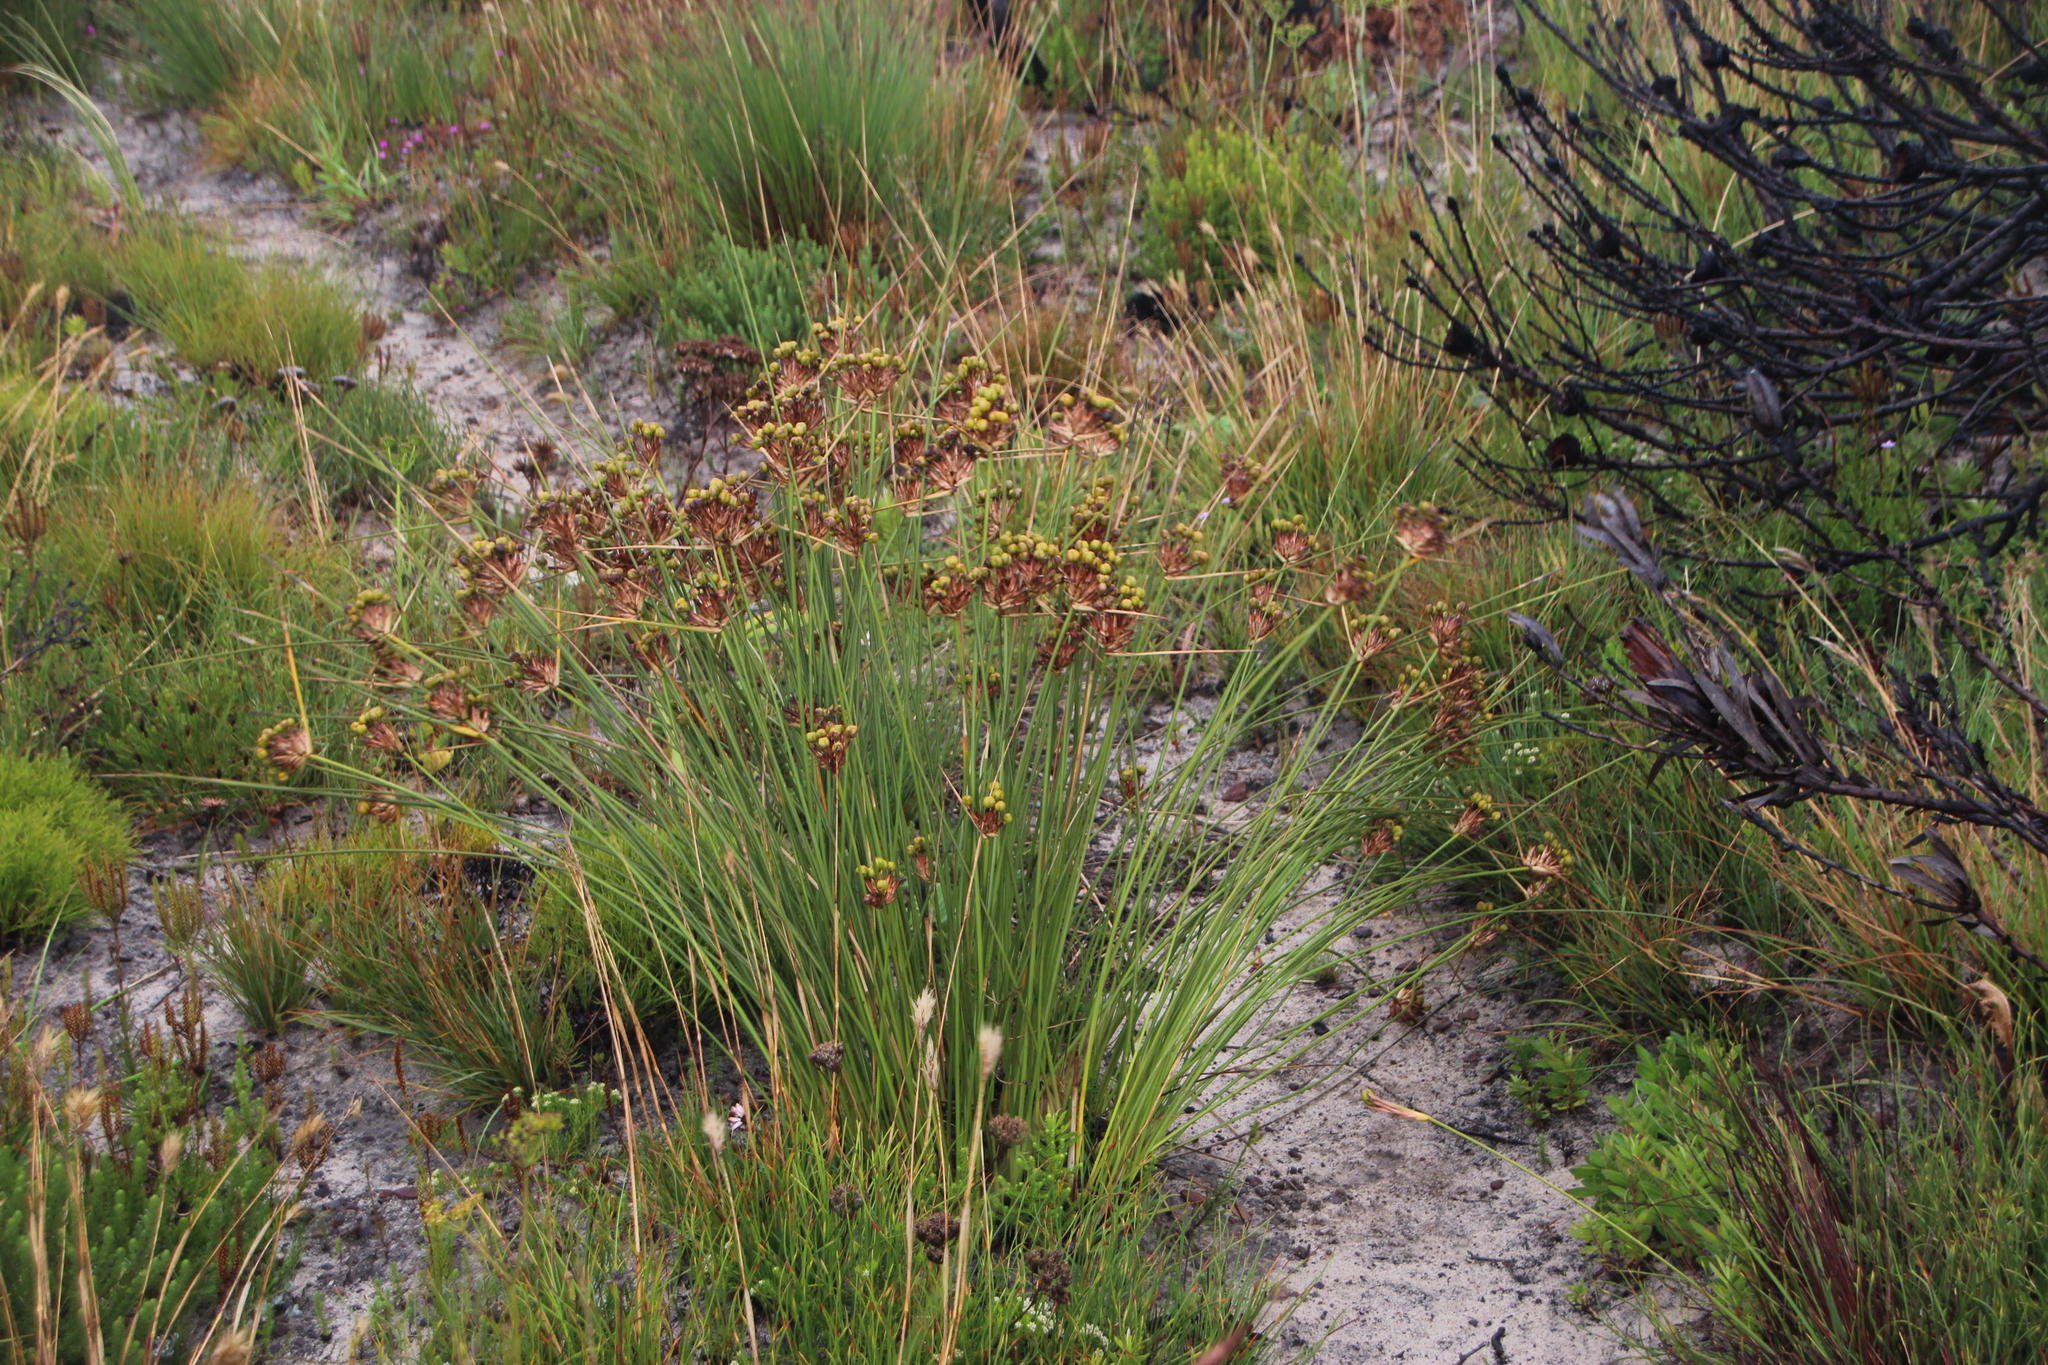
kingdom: Plantae
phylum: Tracheophyta
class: Liliopsida
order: Asparagales
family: Iridaceae
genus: Bobartia
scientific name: Bobartia indica
